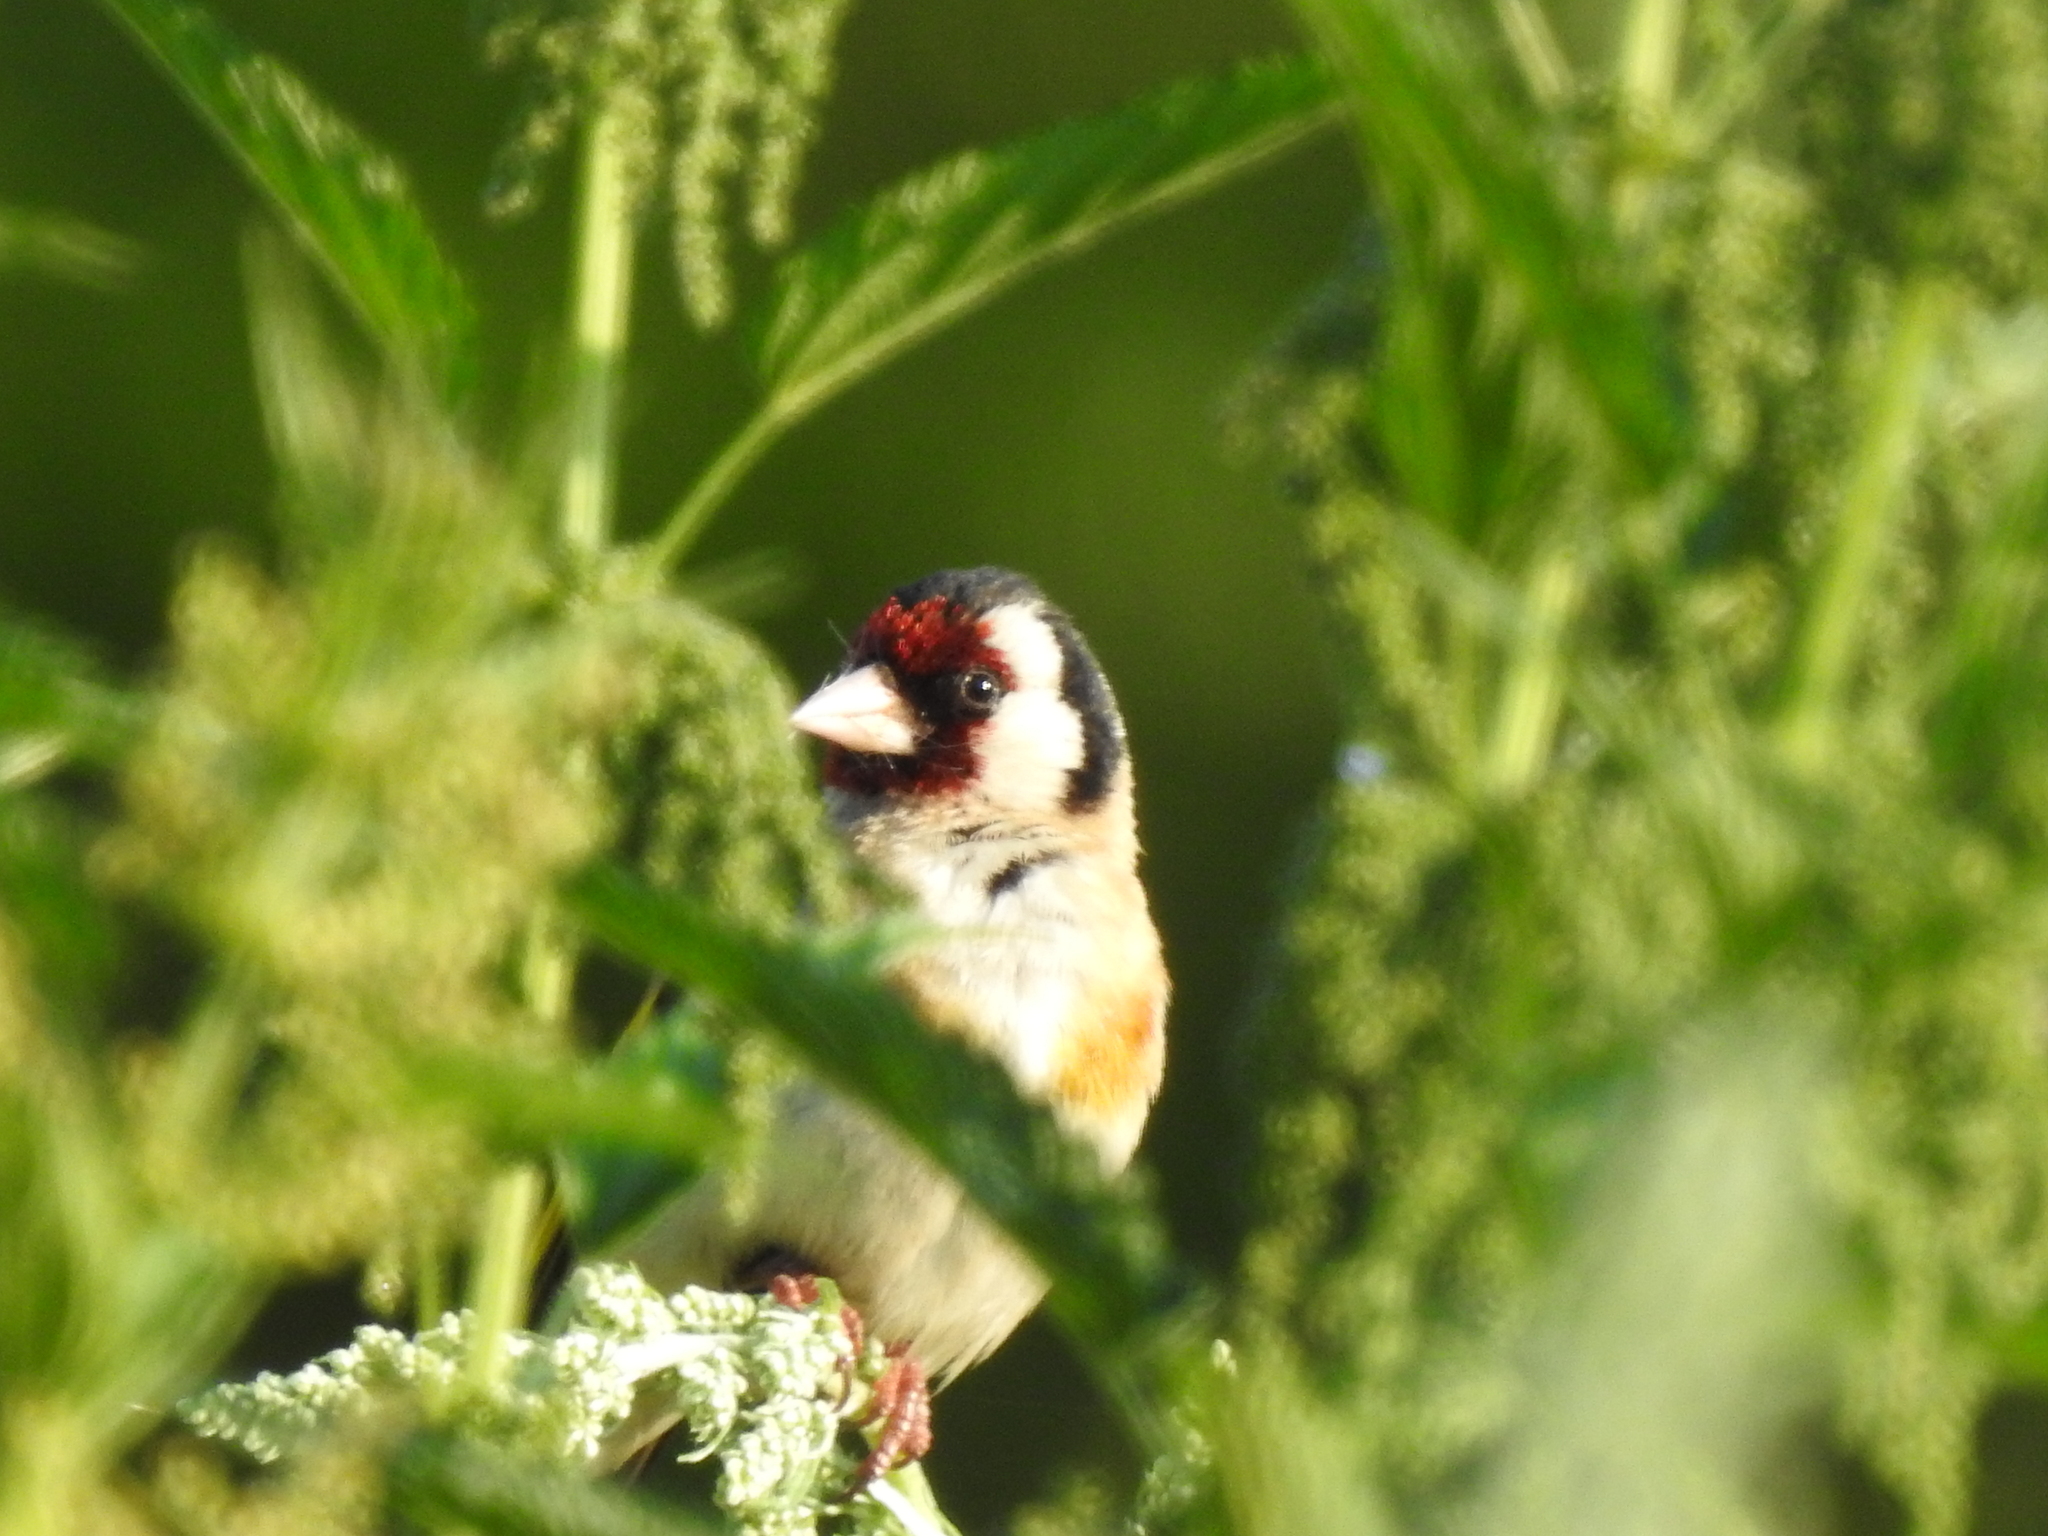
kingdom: Animalia
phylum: Chordata
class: Aves
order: Passeriformes
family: Fringillidae
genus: Carduelis
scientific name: Carduelis carduelis
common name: European goldfinch
